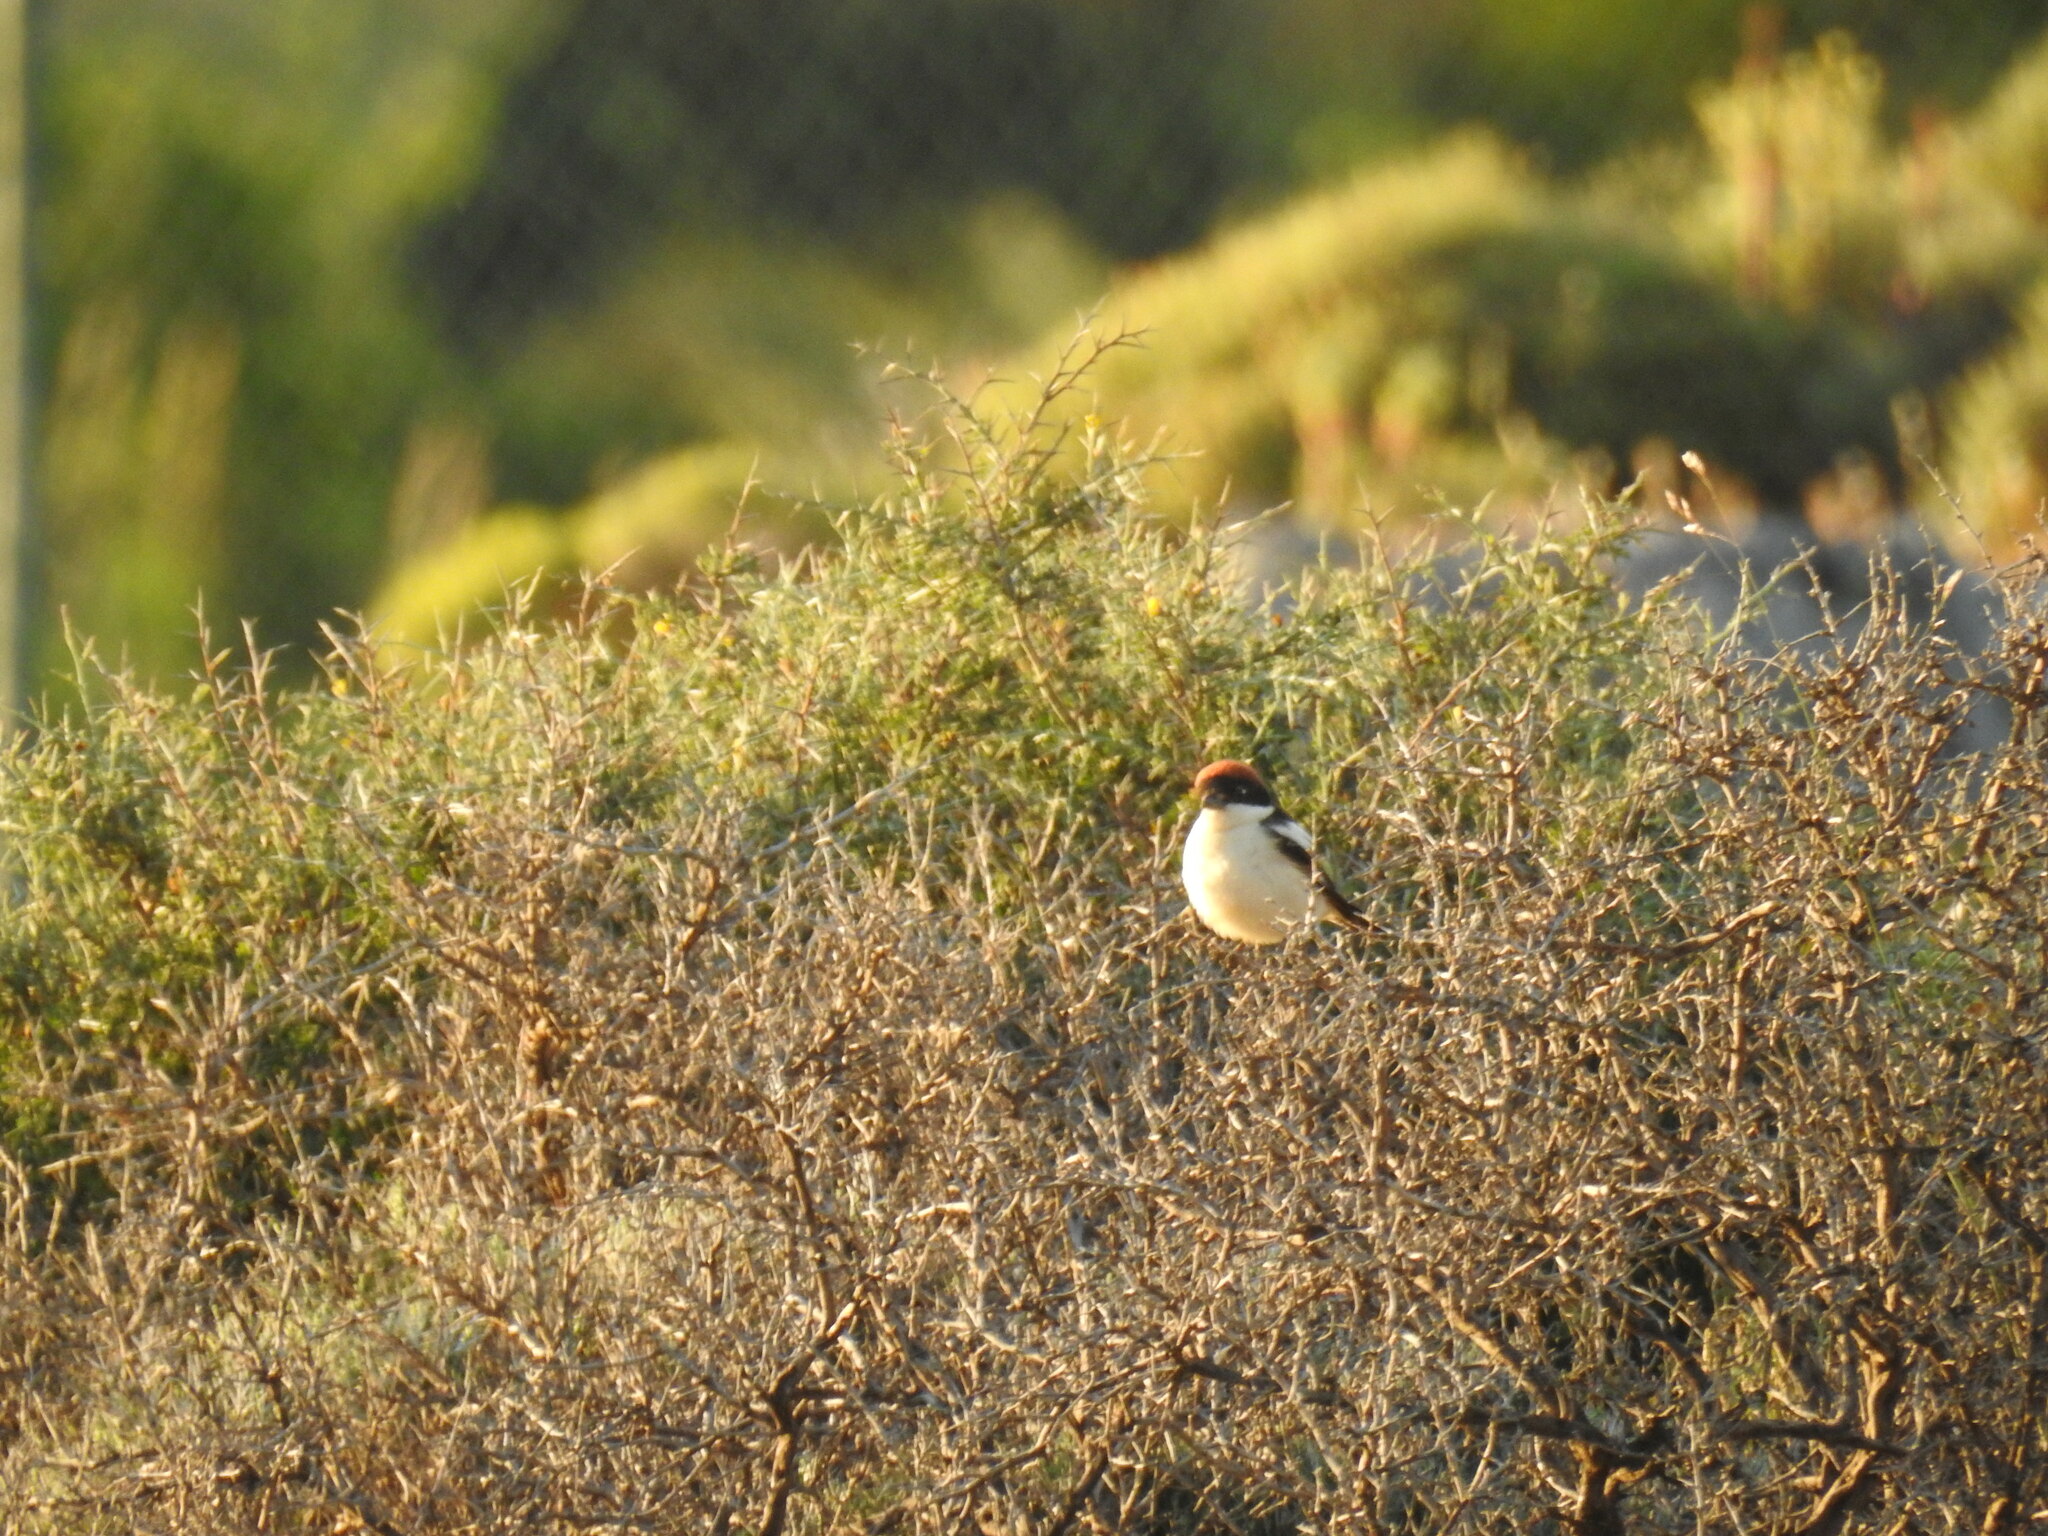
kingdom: Animalia
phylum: Chordata
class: Aves
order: Passeriformes
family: Laniidae
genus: Lanius
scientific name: Lanius senator
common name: Woodchat shrike
